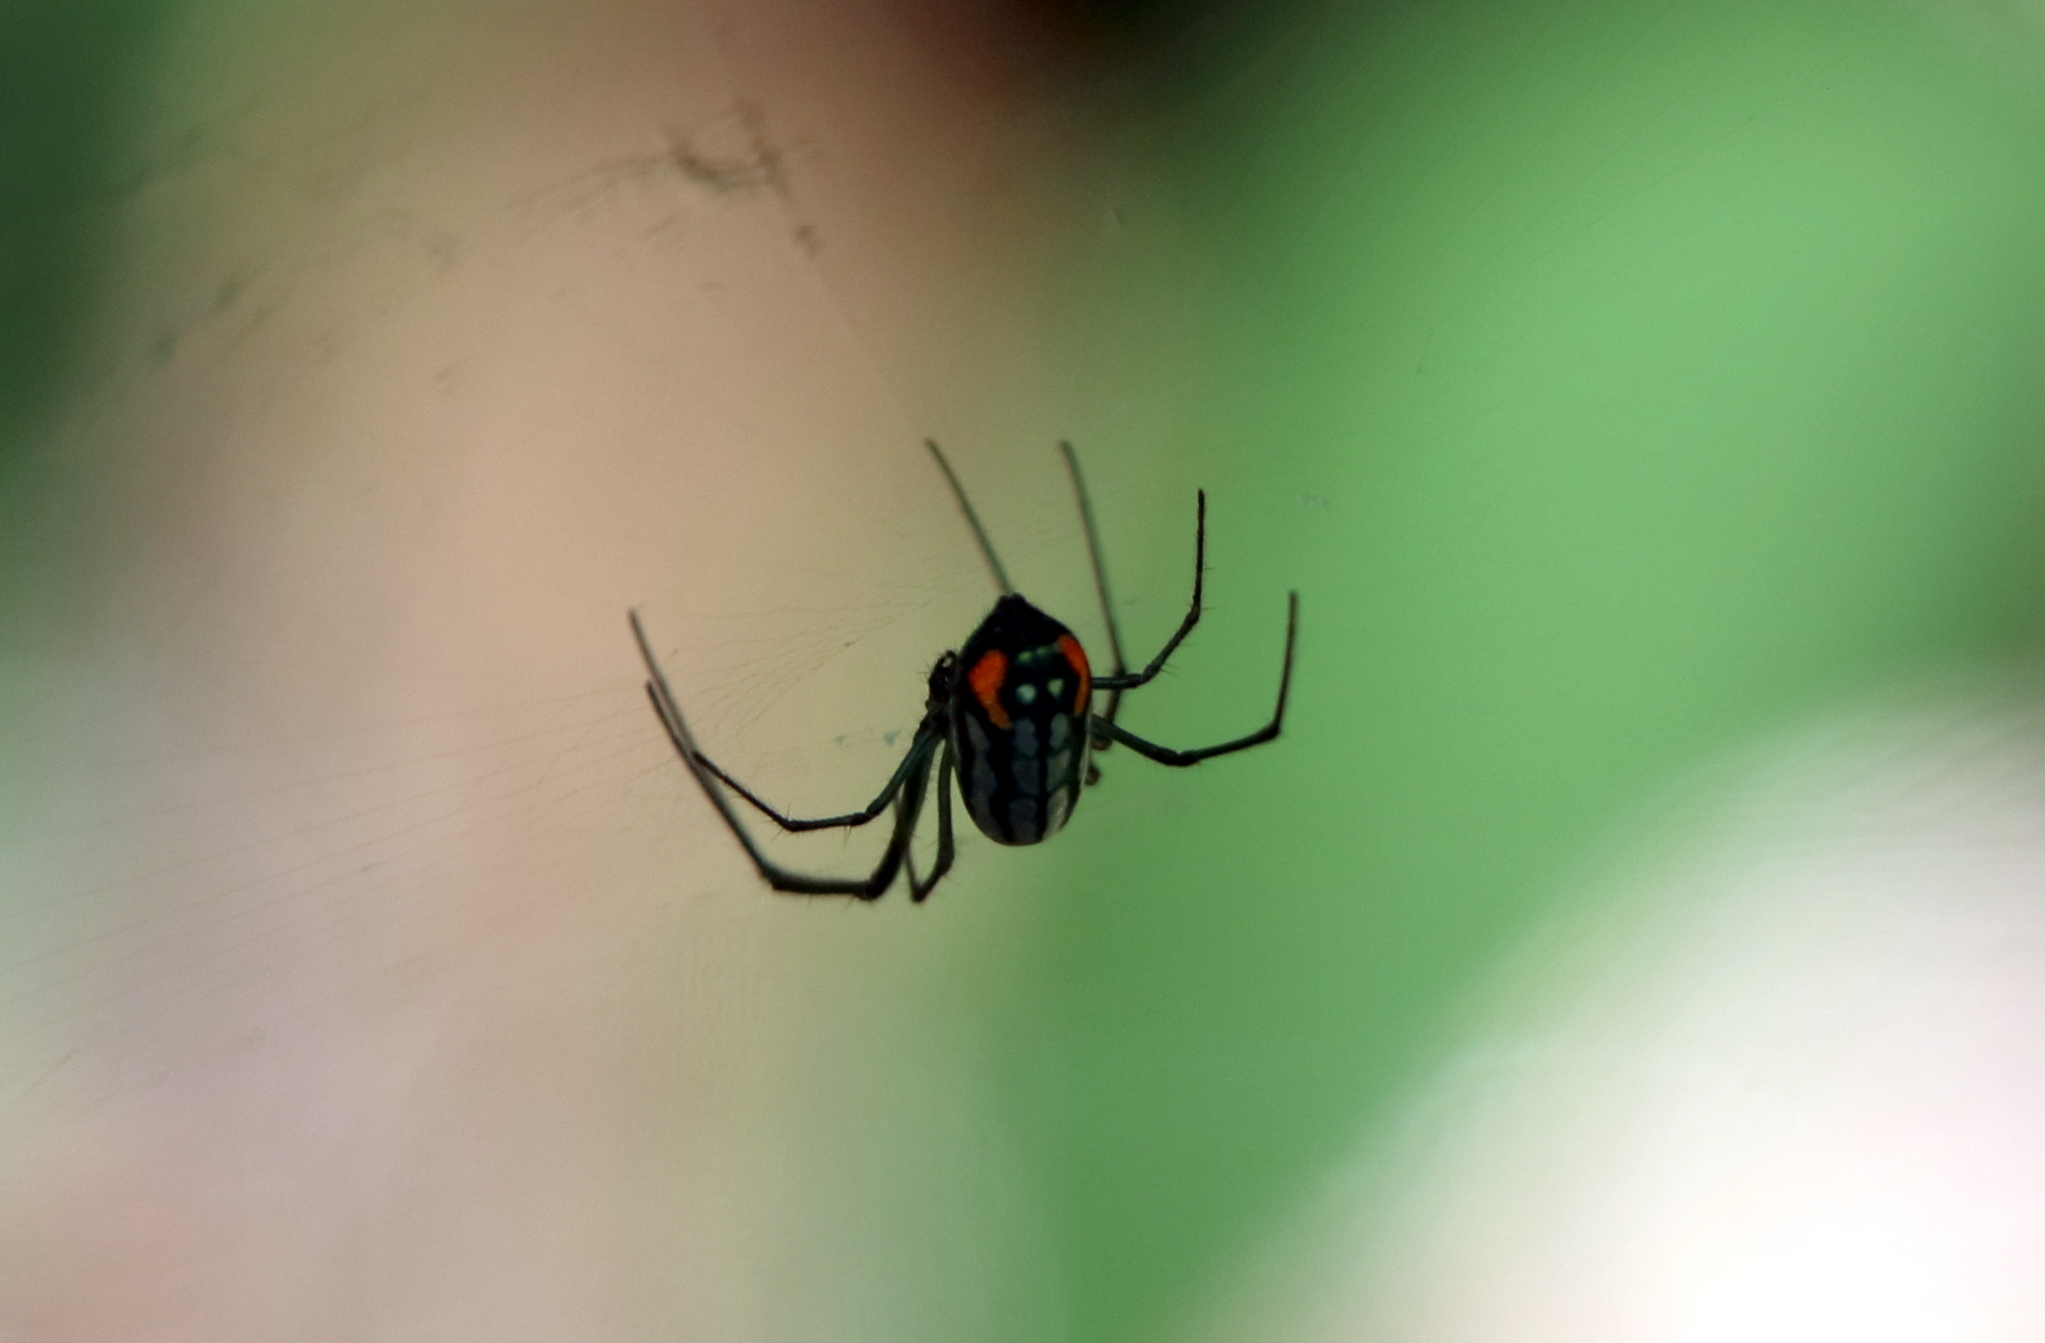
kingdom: Animalia
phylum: Arthropoda
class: Arachnida
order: Araneae
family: Tetragnathidae
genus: Leucauge
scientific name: Leucauge argyrobapta
